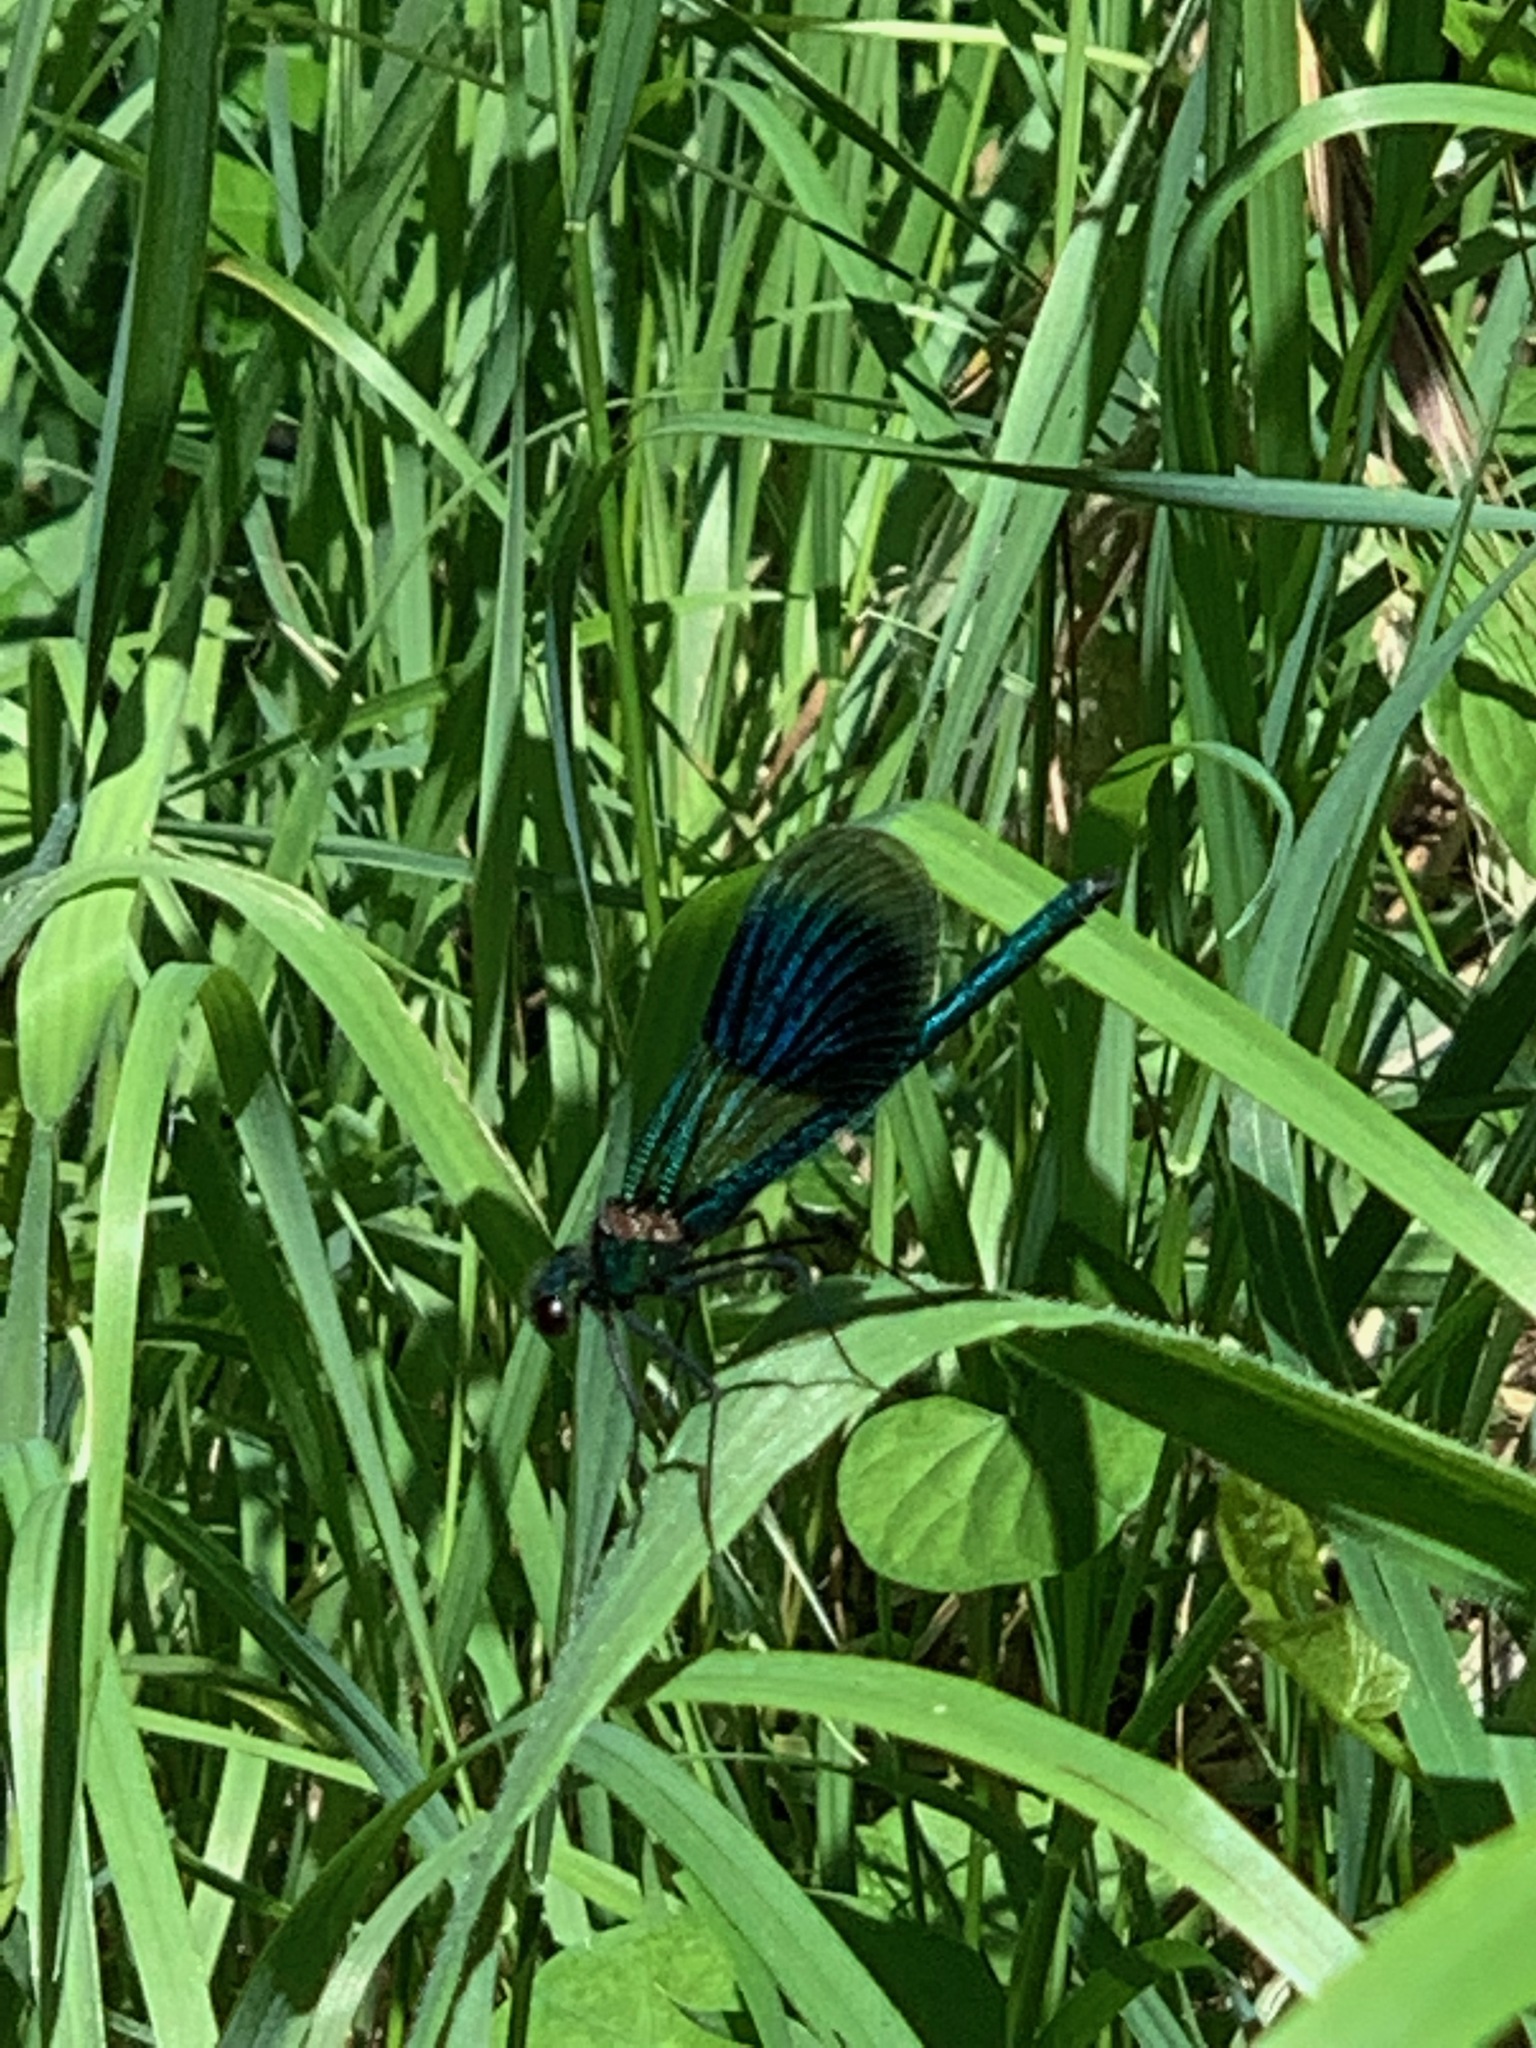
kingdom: Animalia
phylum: Arthropoda
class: Insecta
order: Odonata
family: Calopterygidae
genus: Calopteryx
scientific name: Calopteryx splendens
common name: Banded demoiselle
